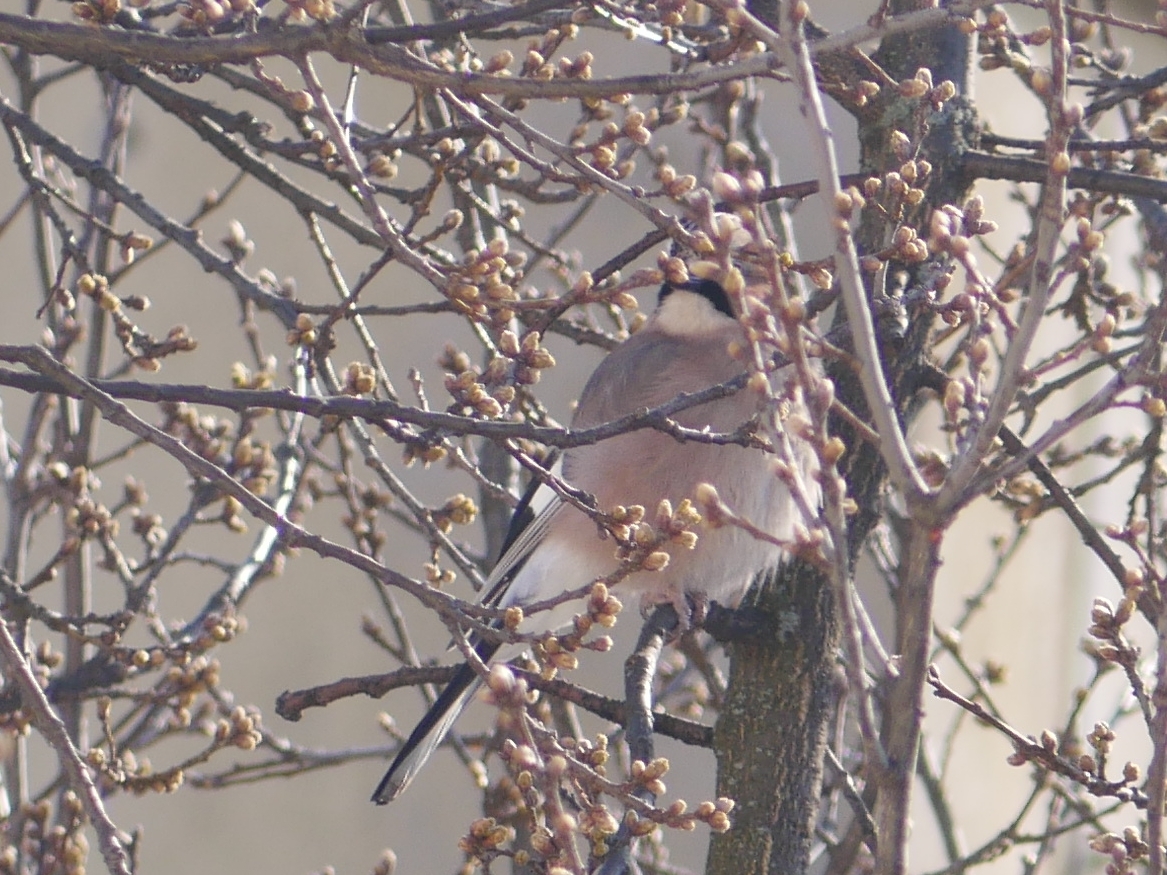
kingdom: Animalia
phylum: Chordata
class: Aves
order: Passeriformes
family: Corvidae
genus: Garrulus
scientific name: Garrulus glandarius
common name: Eurasian jay
